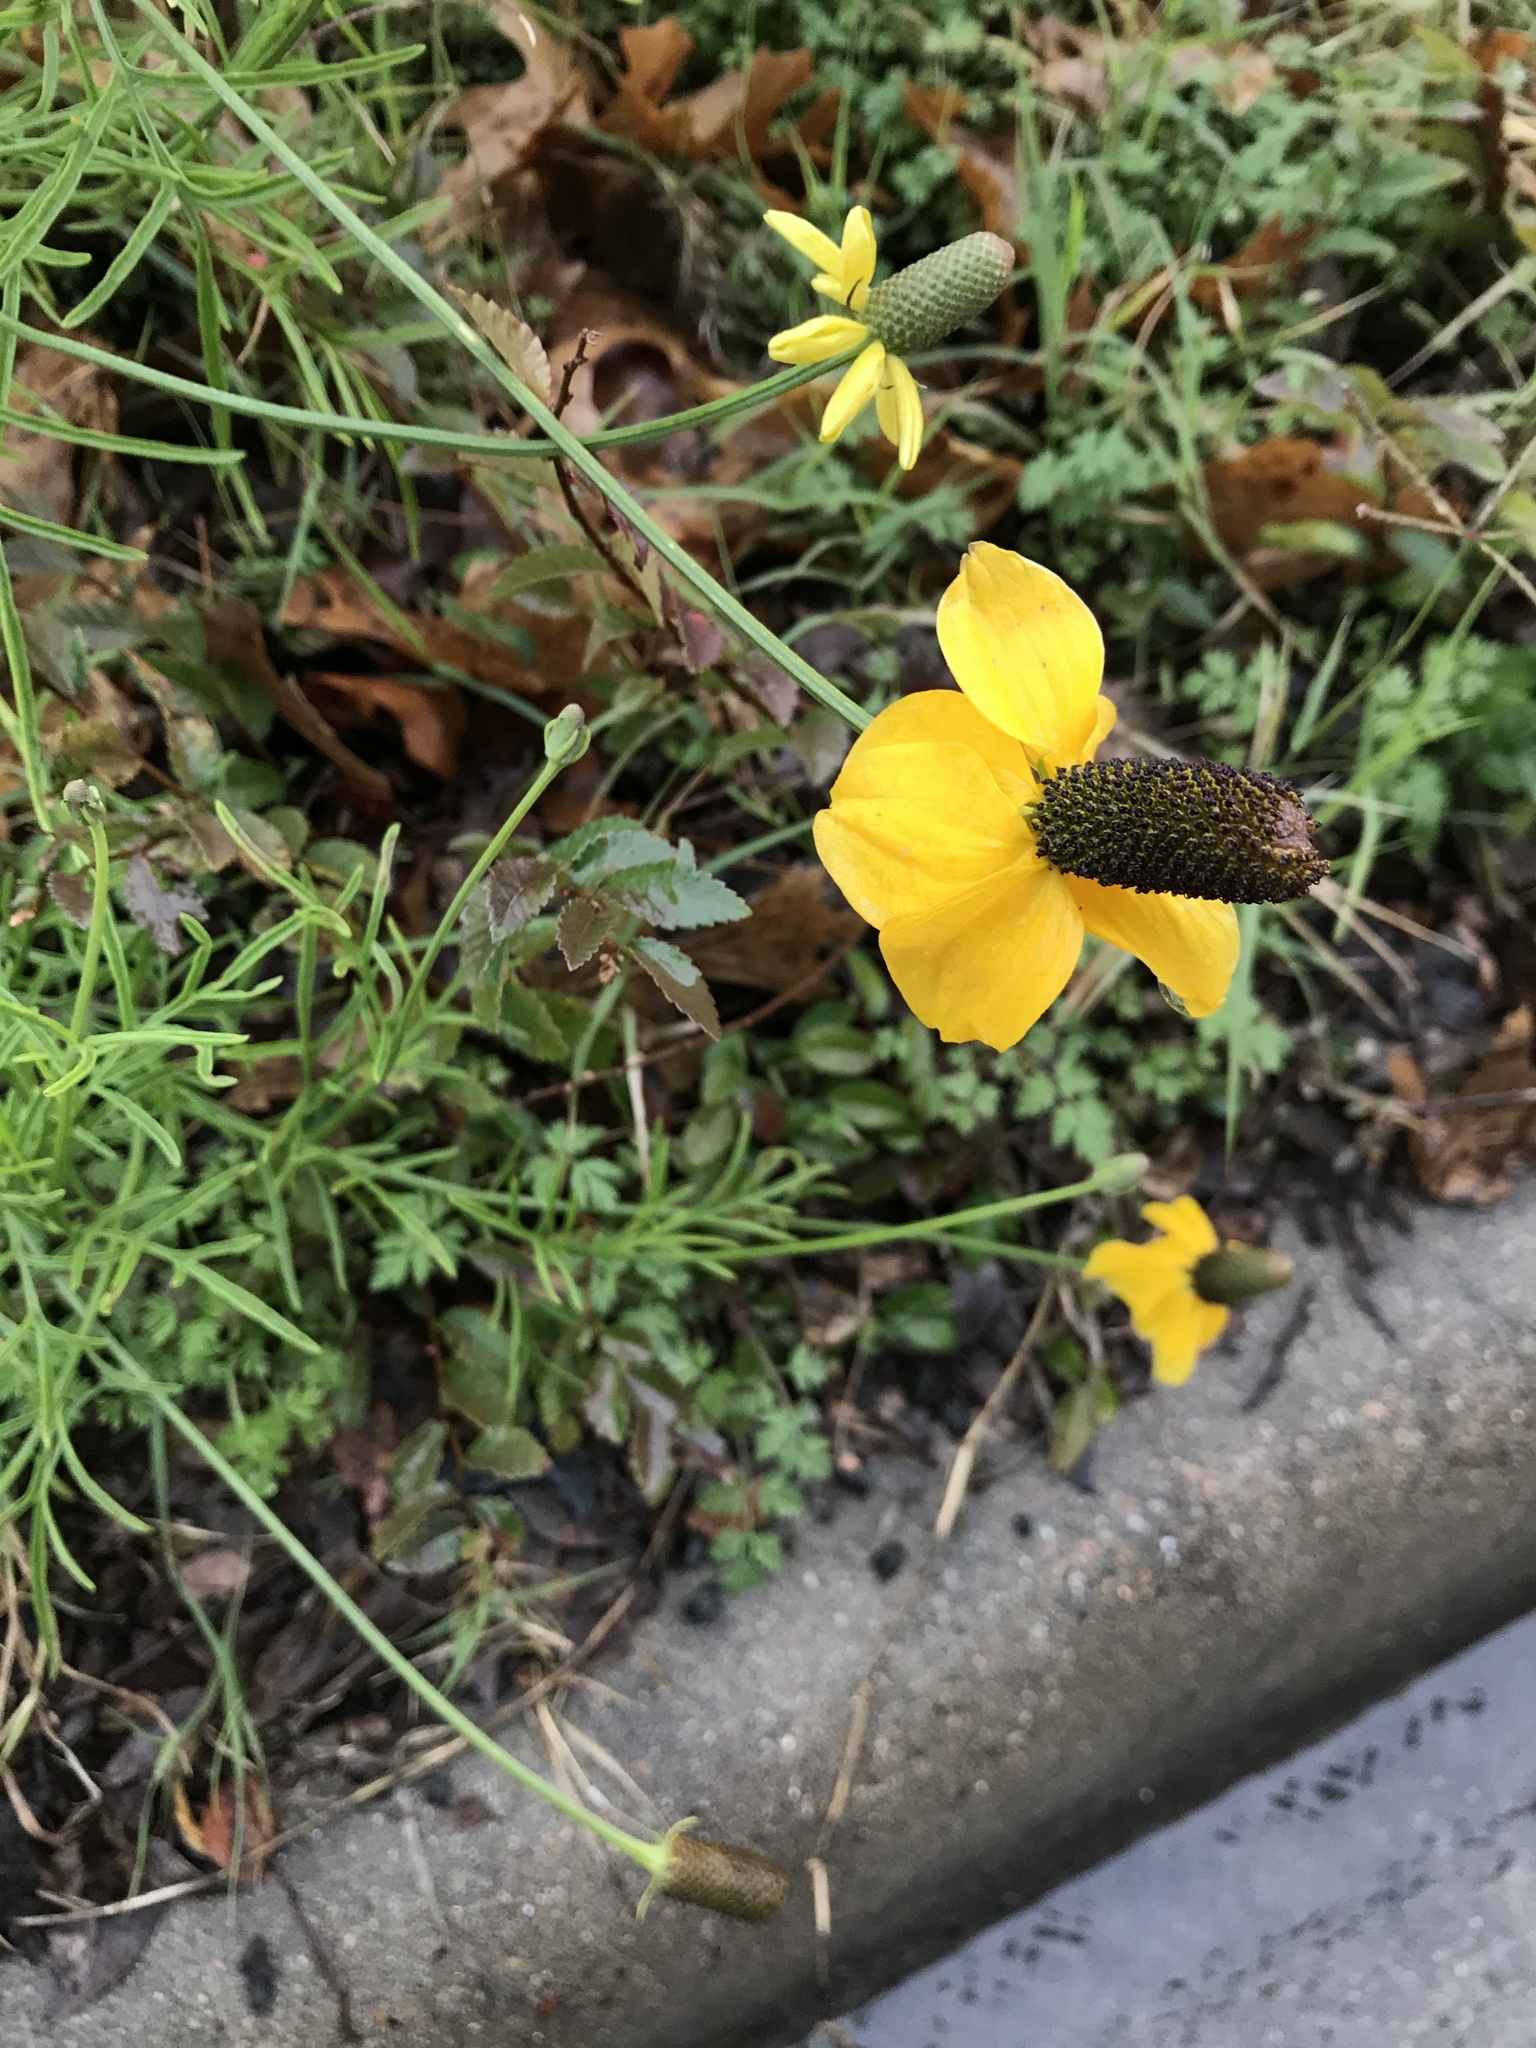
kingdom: Plantae
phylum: Tracheophyta
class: Magnoliopsida
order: Asterales
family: Asteraceae
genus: Ratibida
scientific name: Ratibida columnifera
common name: Prairie coneflower
